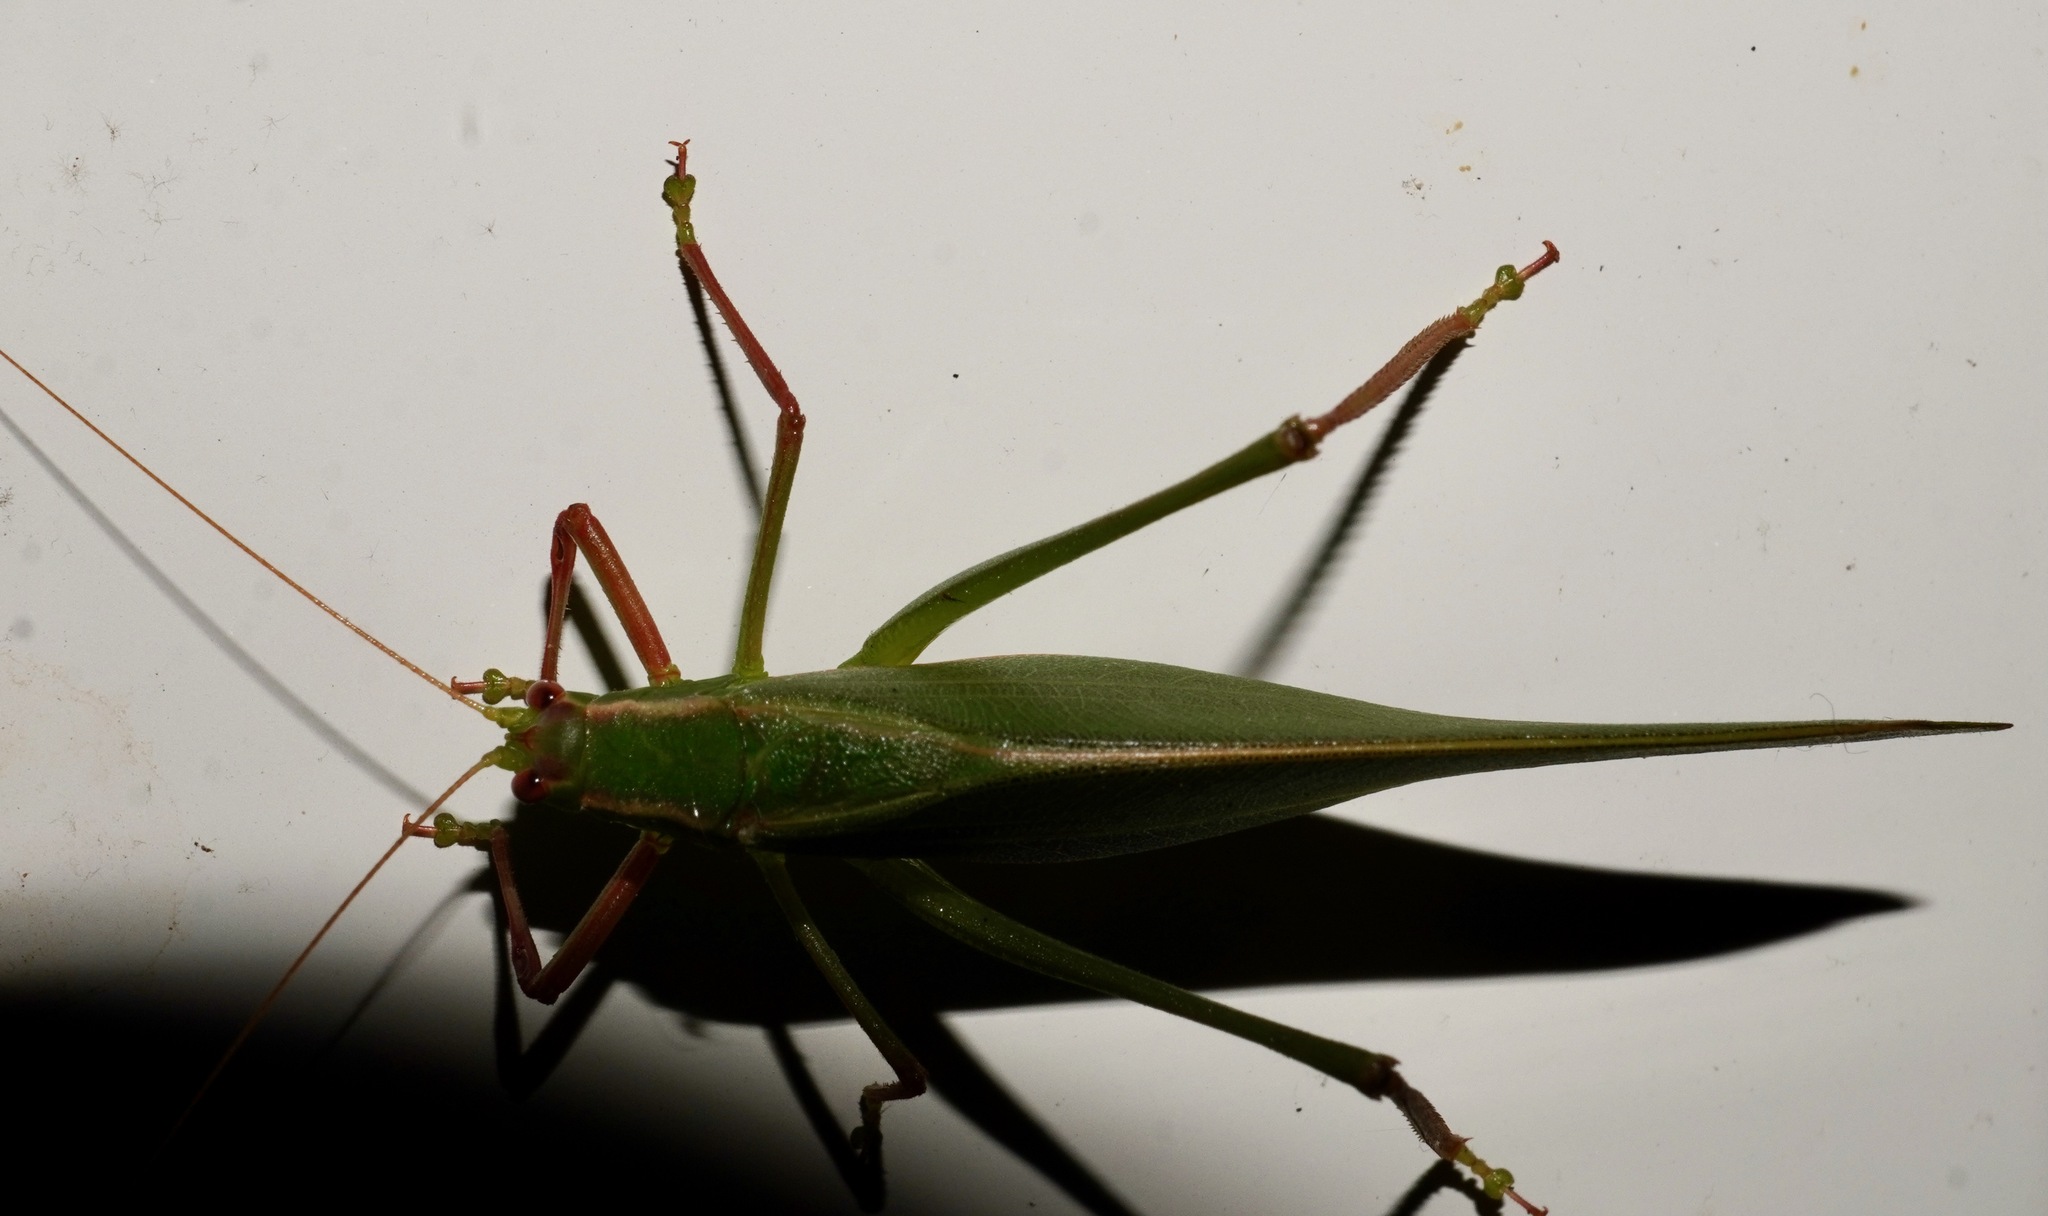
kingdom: Animalia
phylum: Arthropoda
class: Insecta
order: Orthoptera
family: Tettigoniidae
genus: Caedicia
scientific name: Caedicia simplex
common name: Common garden katydid
